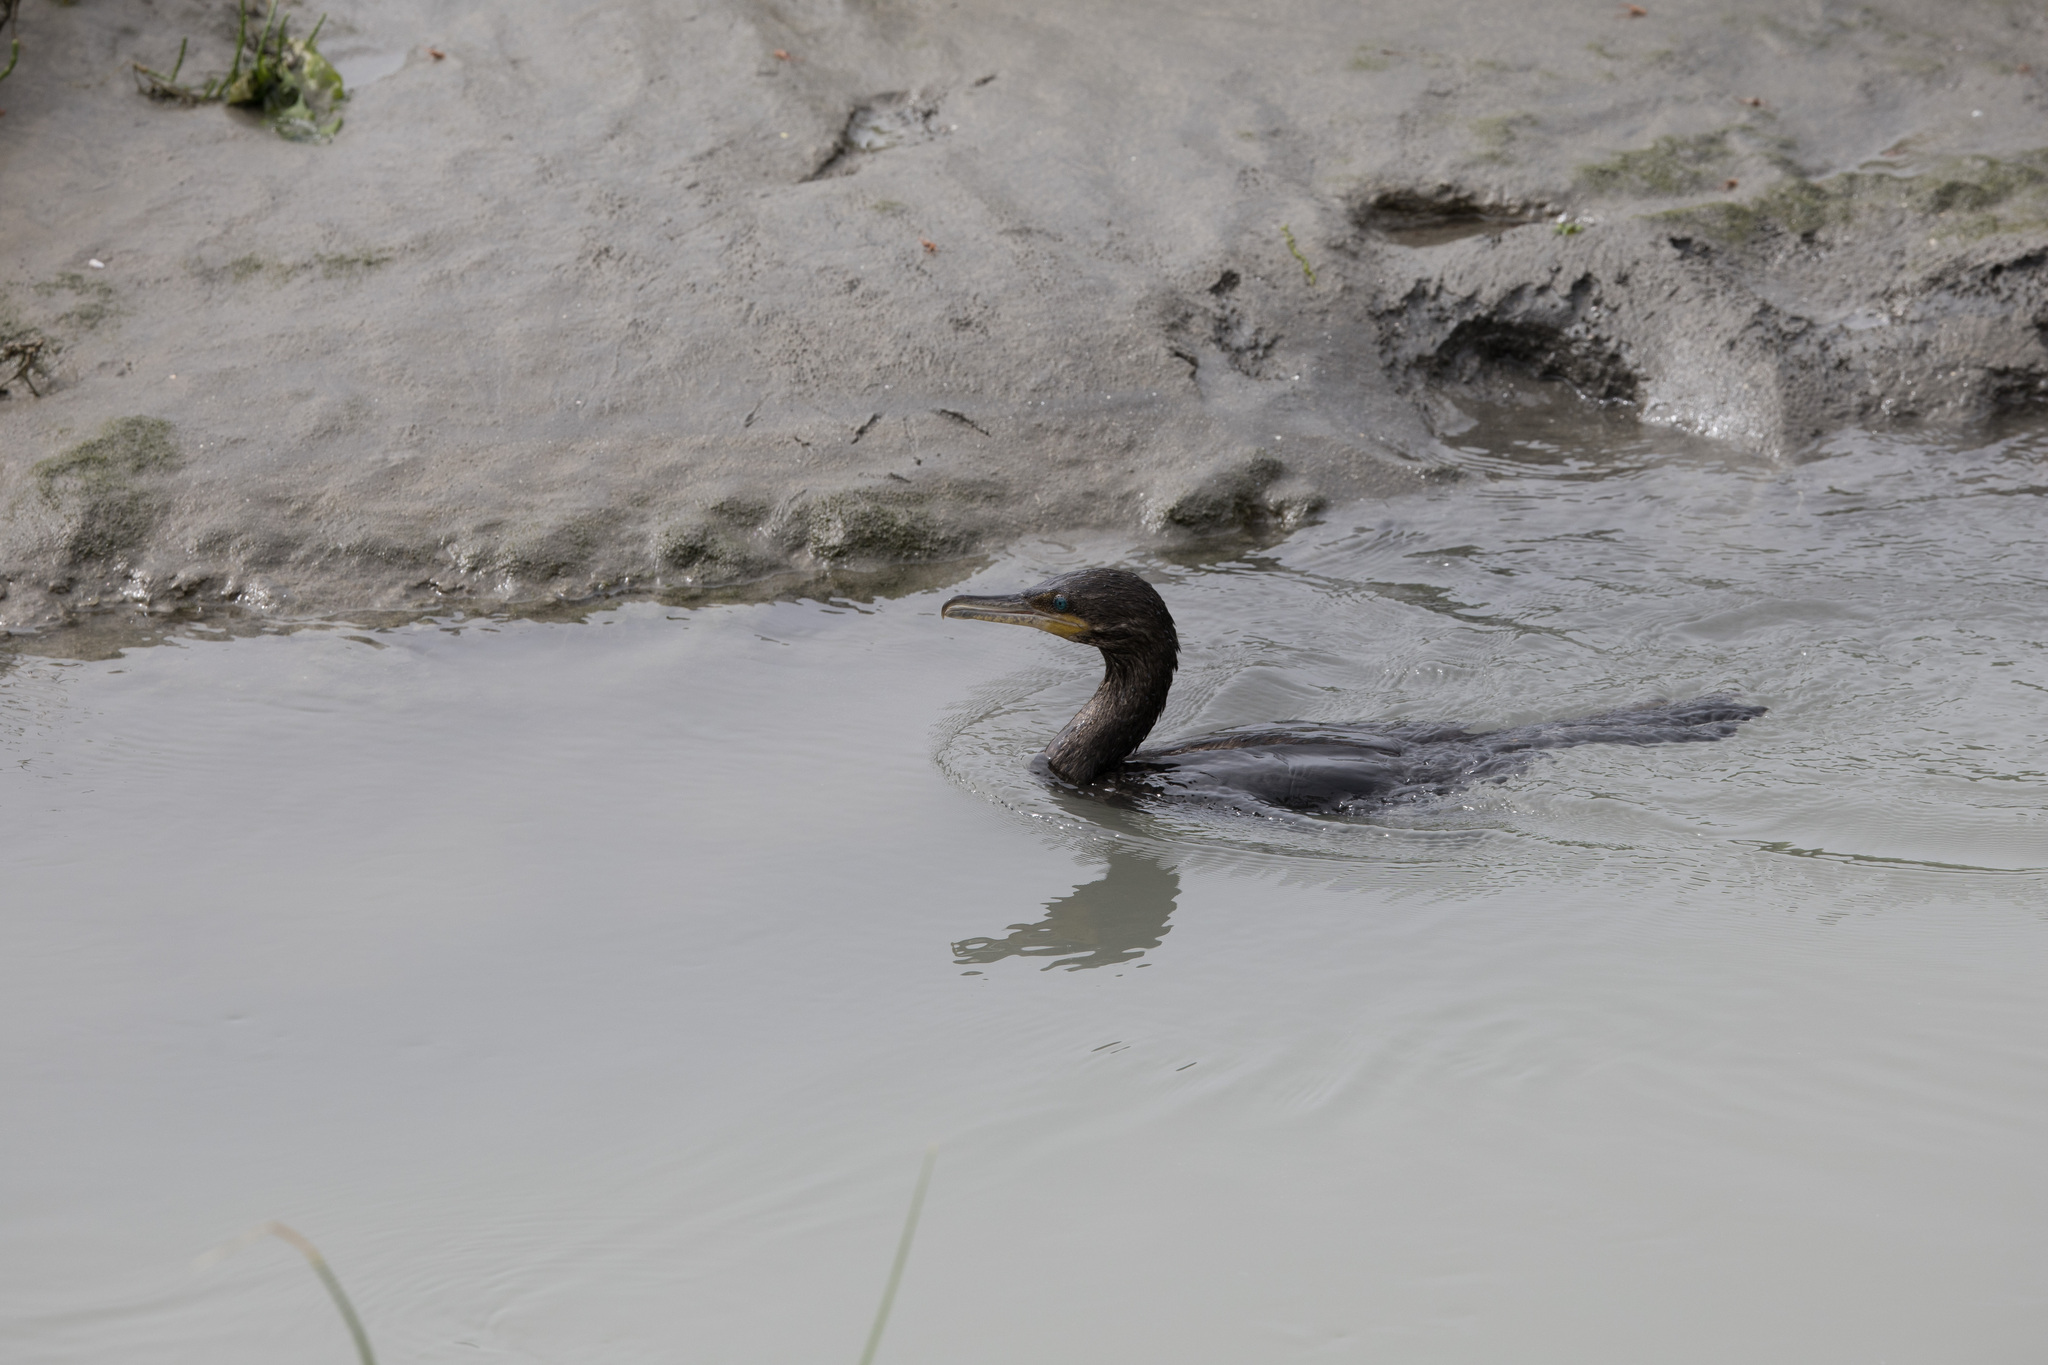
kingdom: Animalia
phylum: Chordata
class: Aves
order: Suliformes
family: Phalacrocoracidae
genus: Phalacrocorax
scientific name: Phalacrocorax brasilianus
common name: Neotropic cormorant
